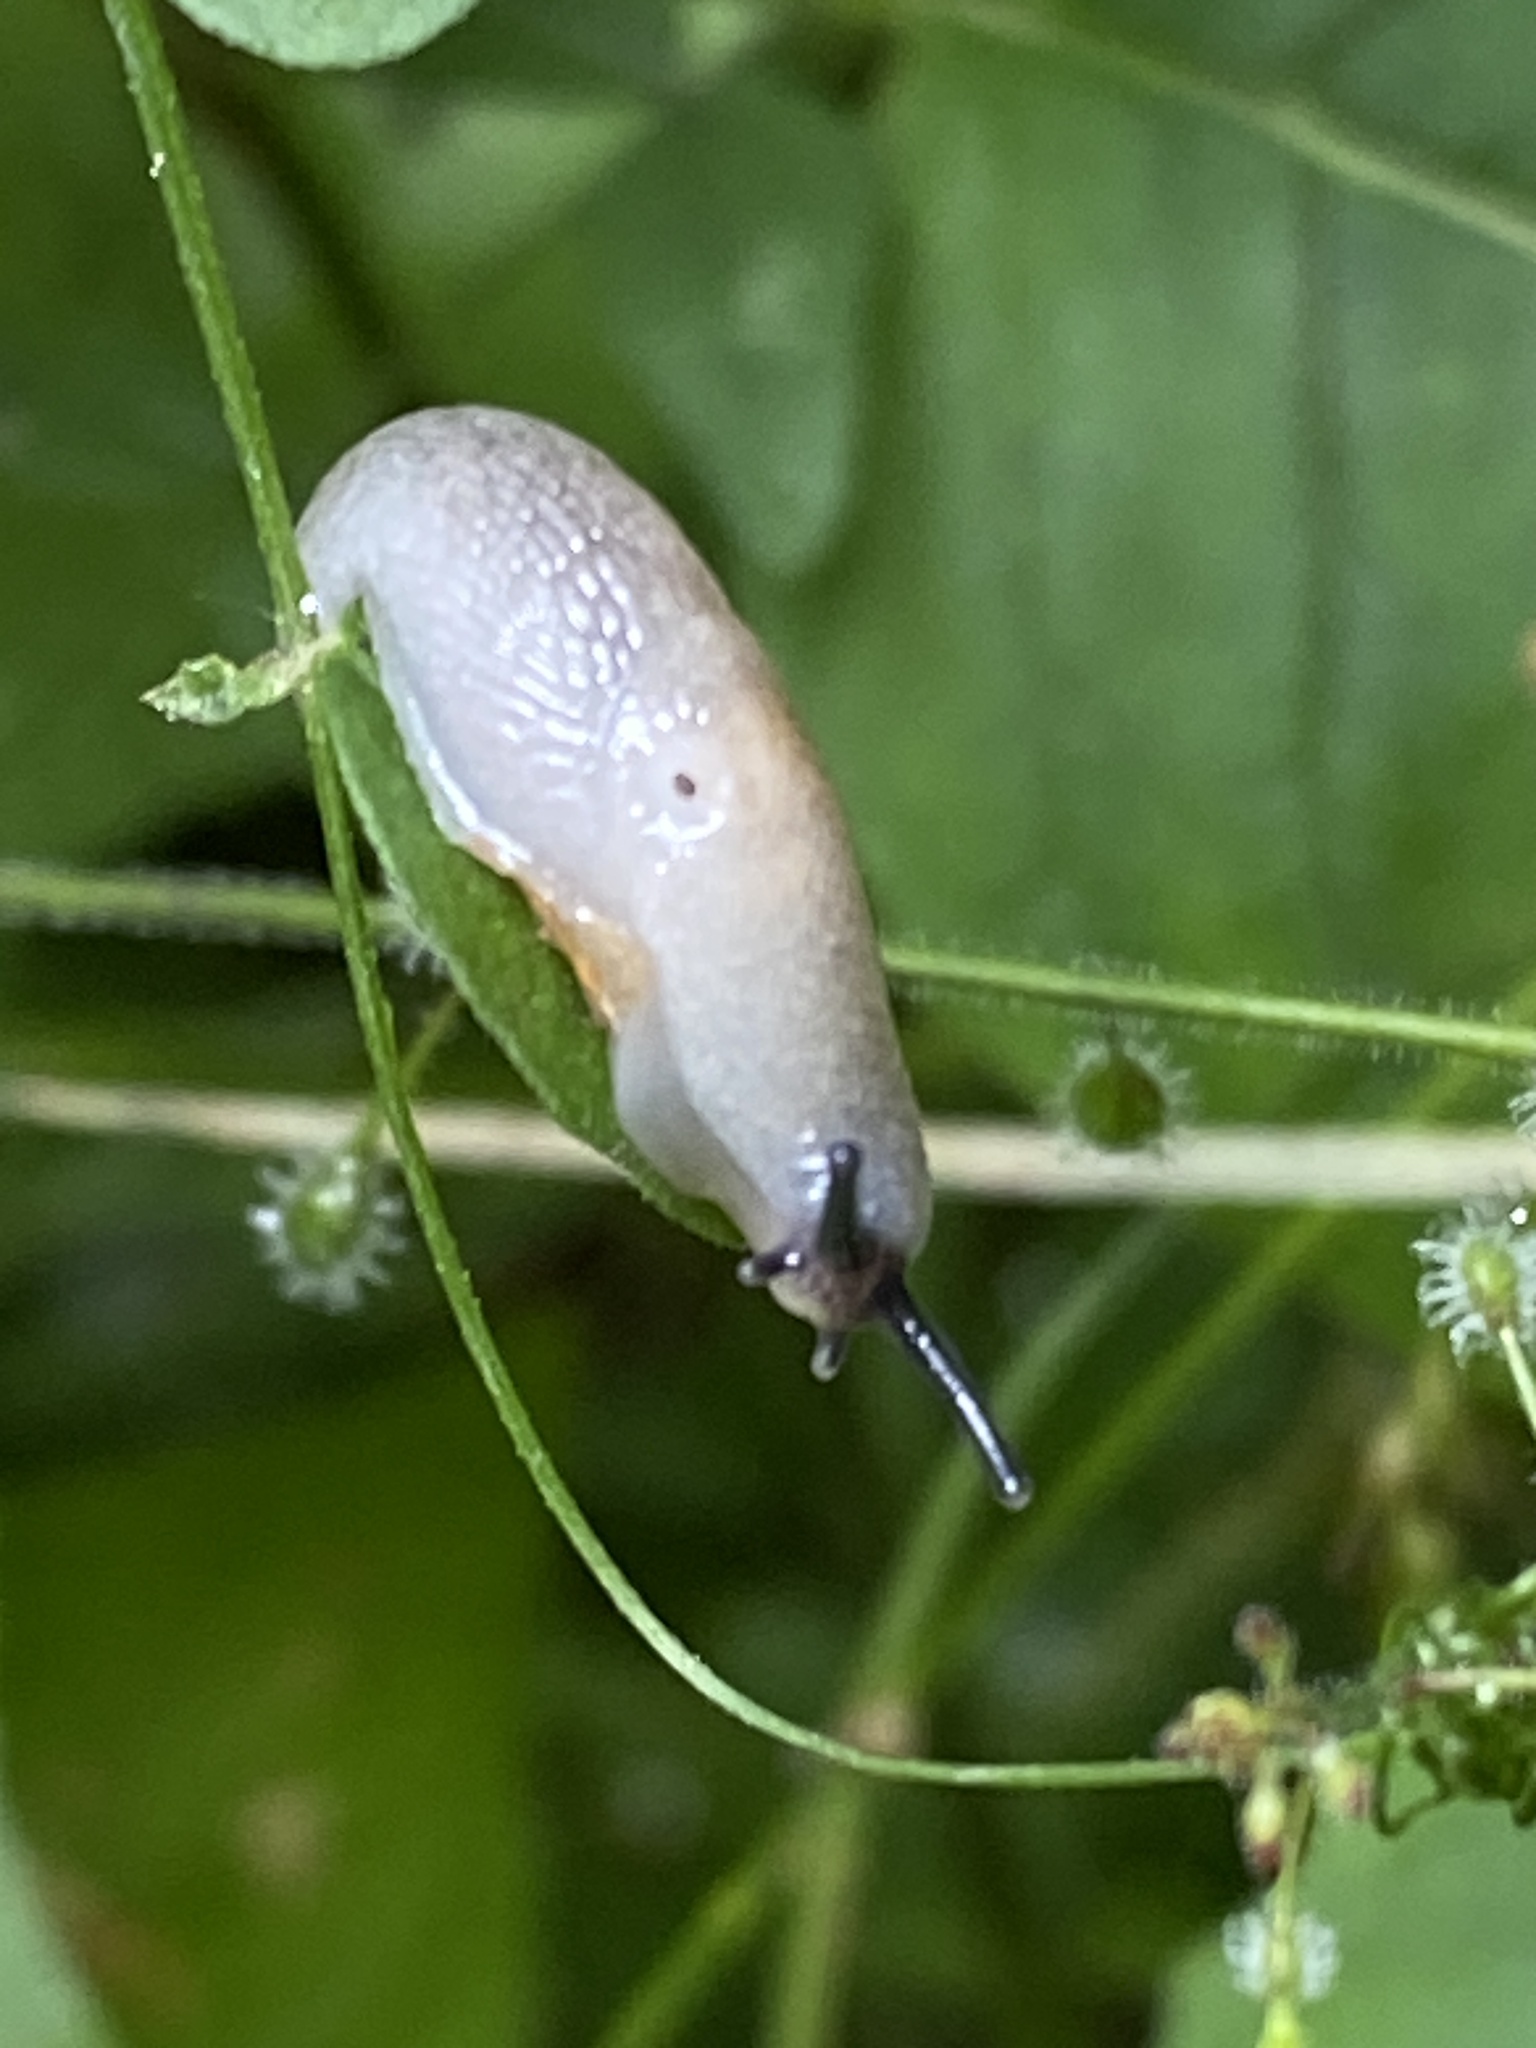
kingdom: Animalia
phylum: Mollusca
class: Gastropoda
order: Stylommatophora
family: Agriolimacidae
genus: Krynickillus
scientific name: Krynickillus melanocephalus
